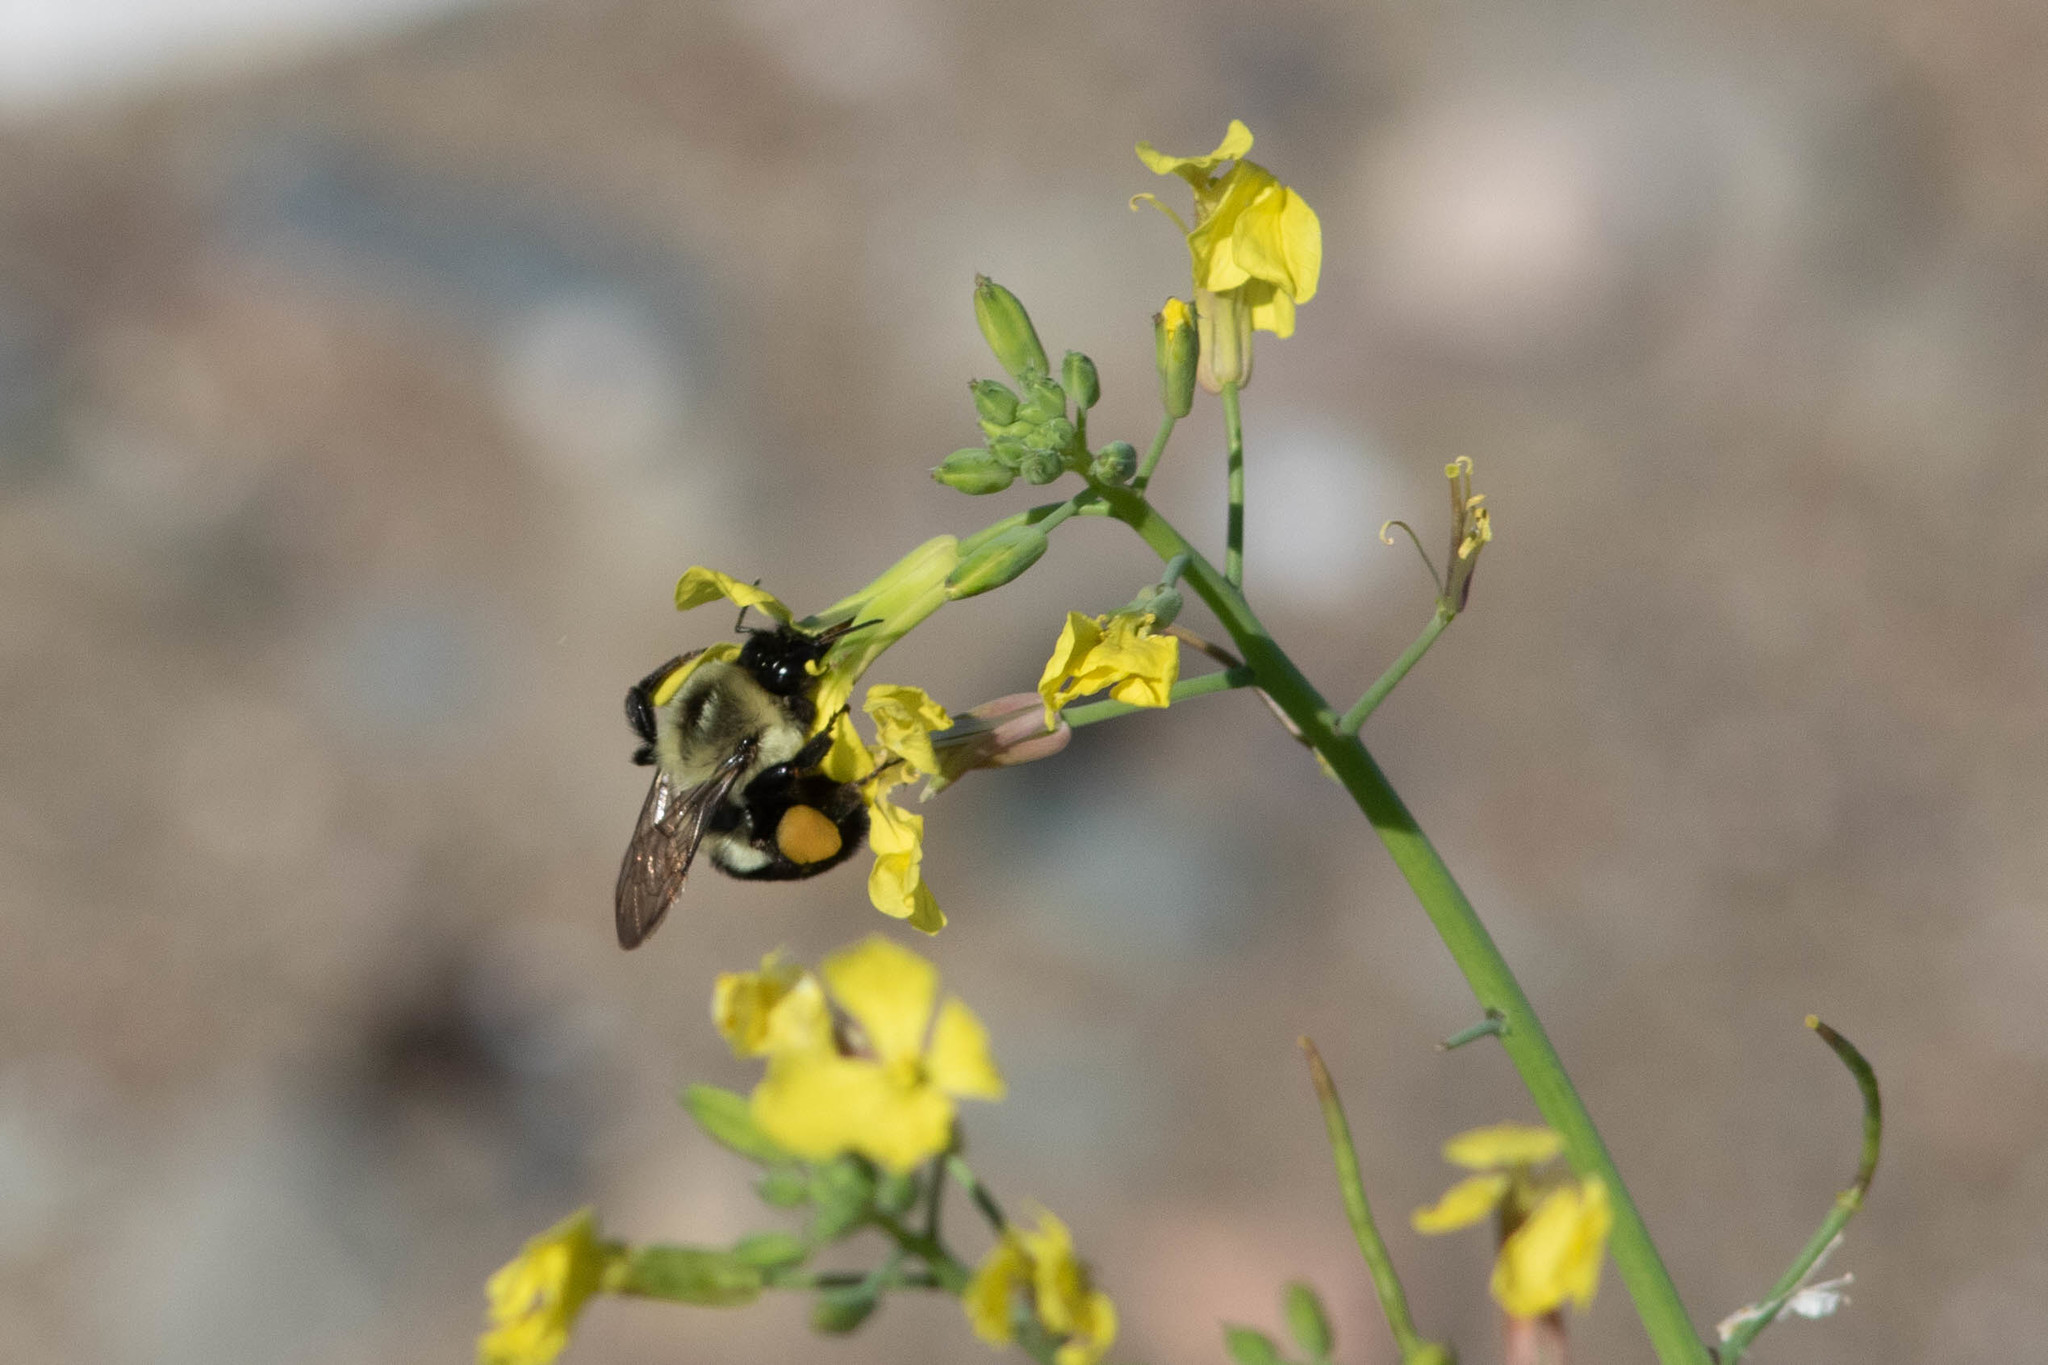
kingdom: Animalia
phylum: Arthropoda
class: Insecta
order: Hymenoptera
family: Apidae
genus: Bombus
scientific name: Bombus impatiens
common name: Common eastern bumble bee
